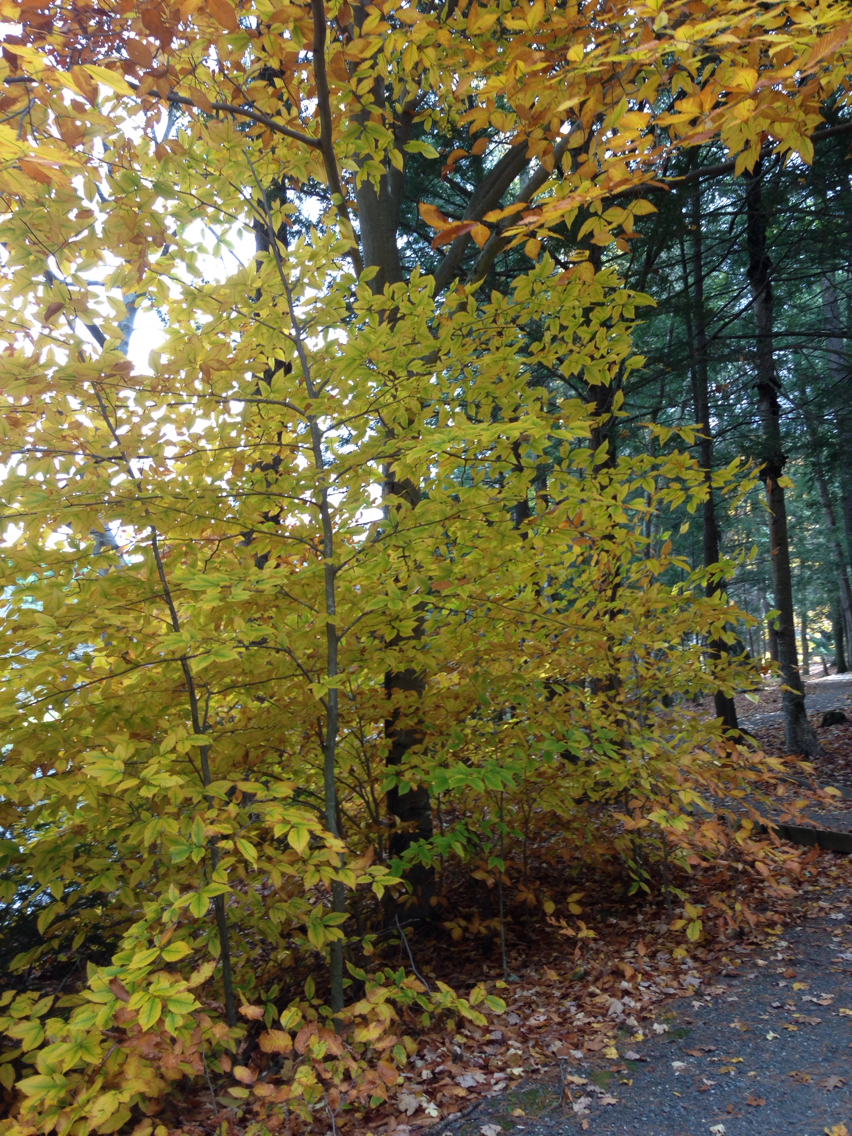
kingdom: Plantae
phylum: Tracheophyta
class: Magnoliopsida
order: Fagales
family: Fagaceae
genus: Fagus
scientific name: Fagus grandifolia
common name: American beech
